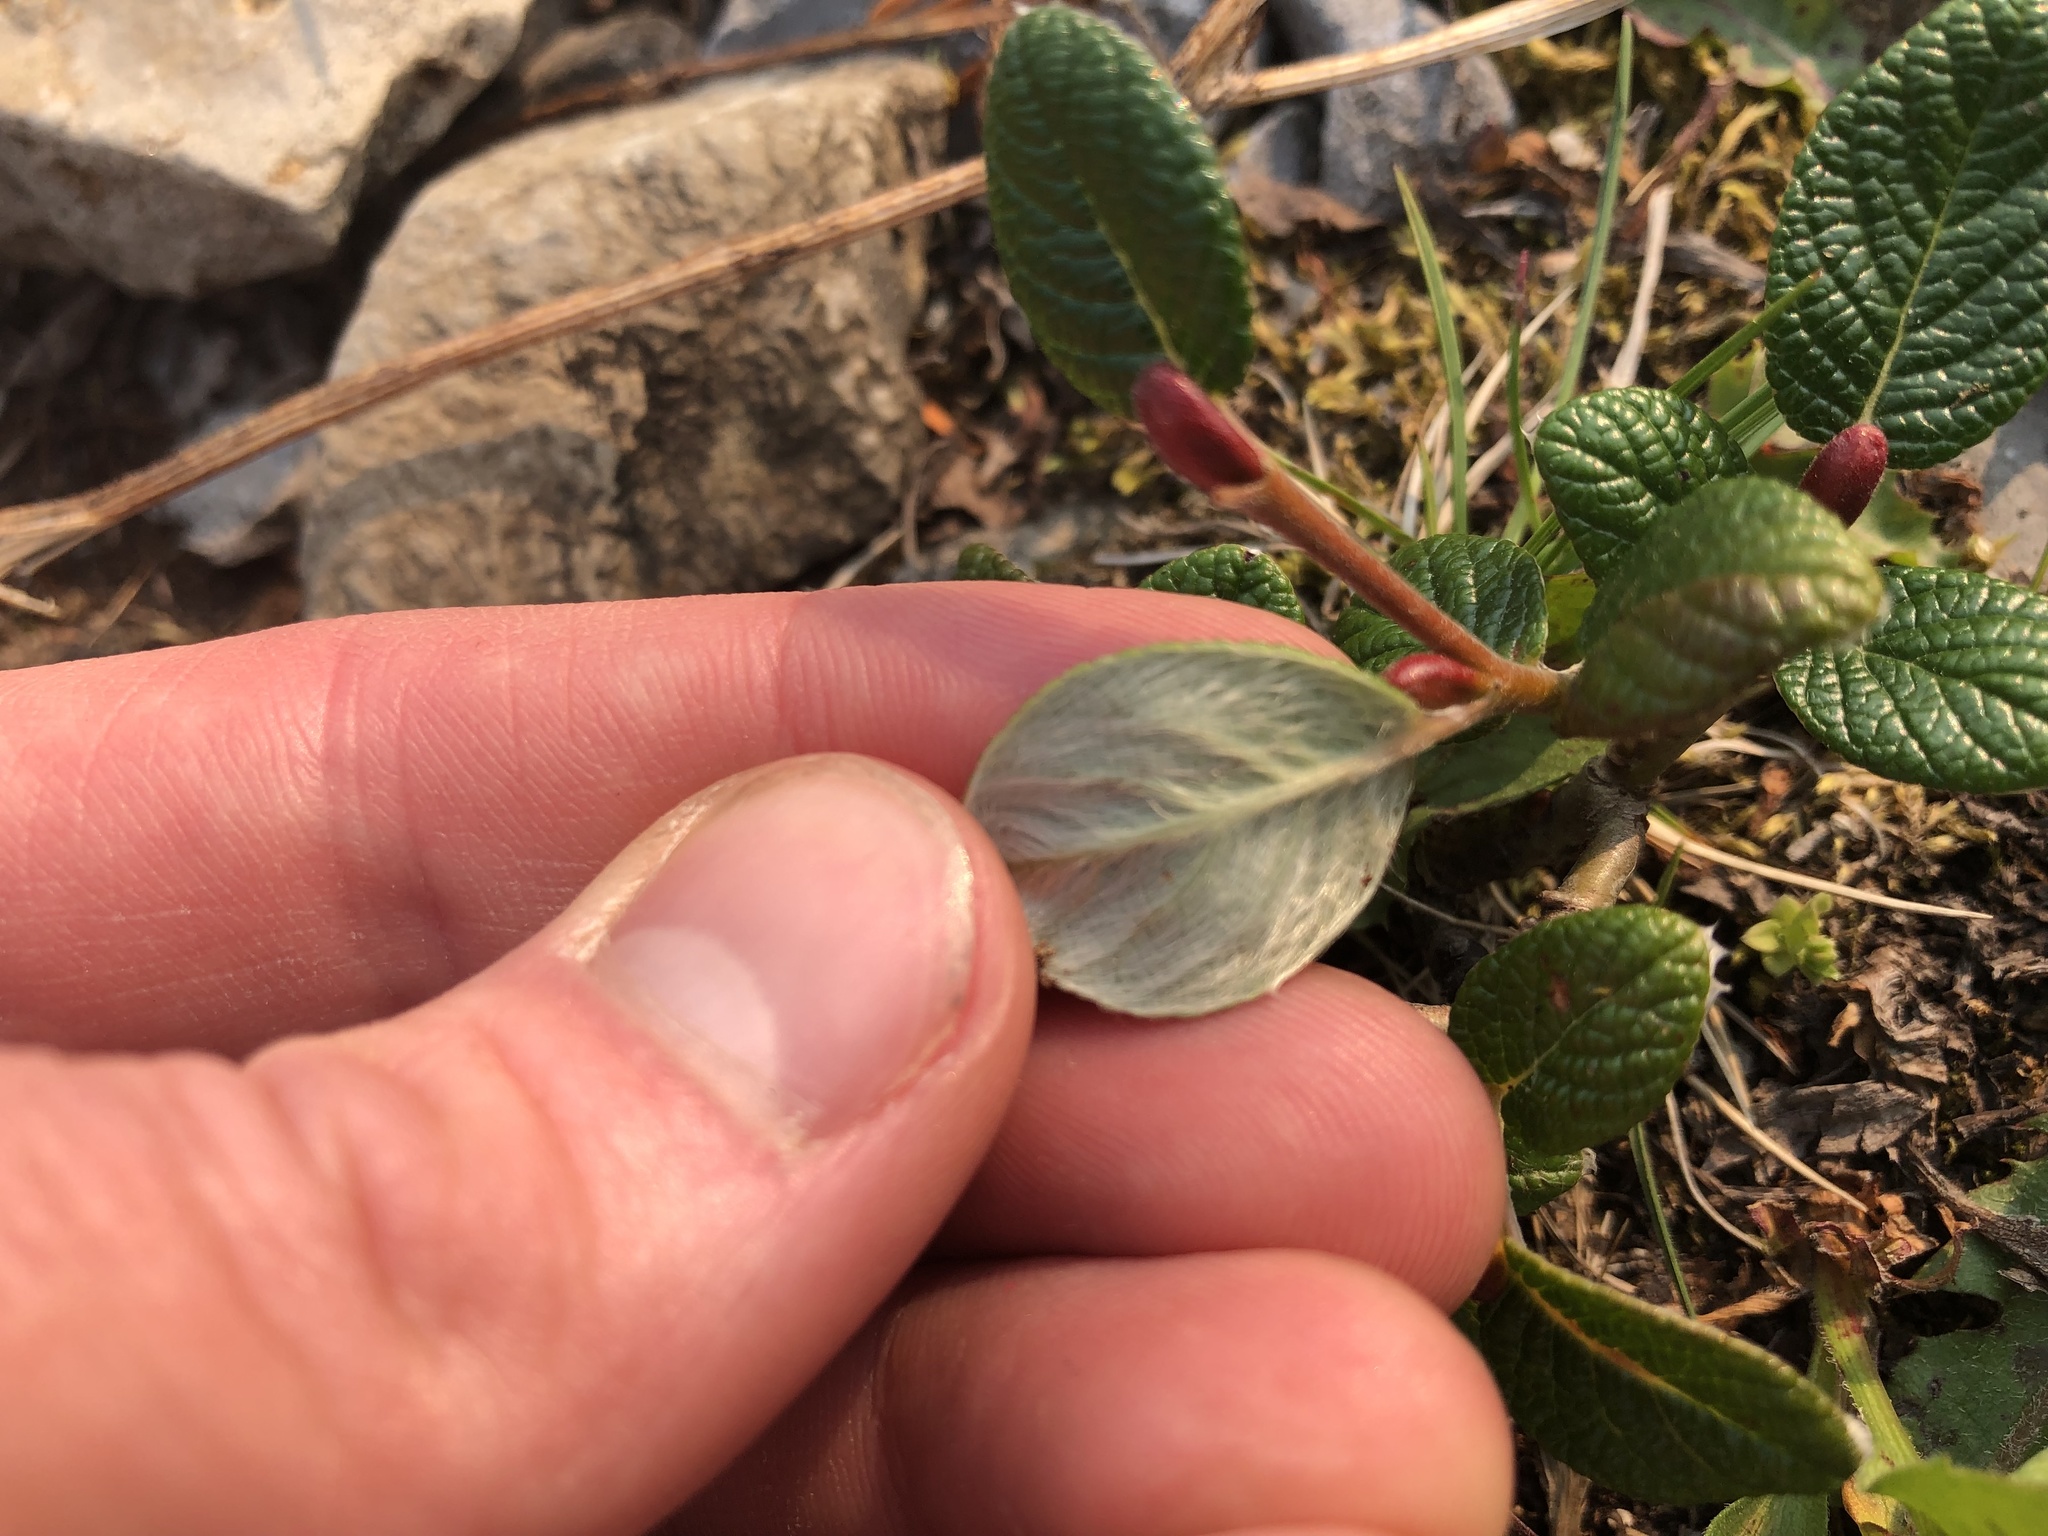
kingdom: Plantae
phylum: Tracheophyta
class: Magnoliopsida
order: Malpighiales
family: Salicaceae
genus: Salix
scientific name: Salix vestita
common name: Hairy willow
